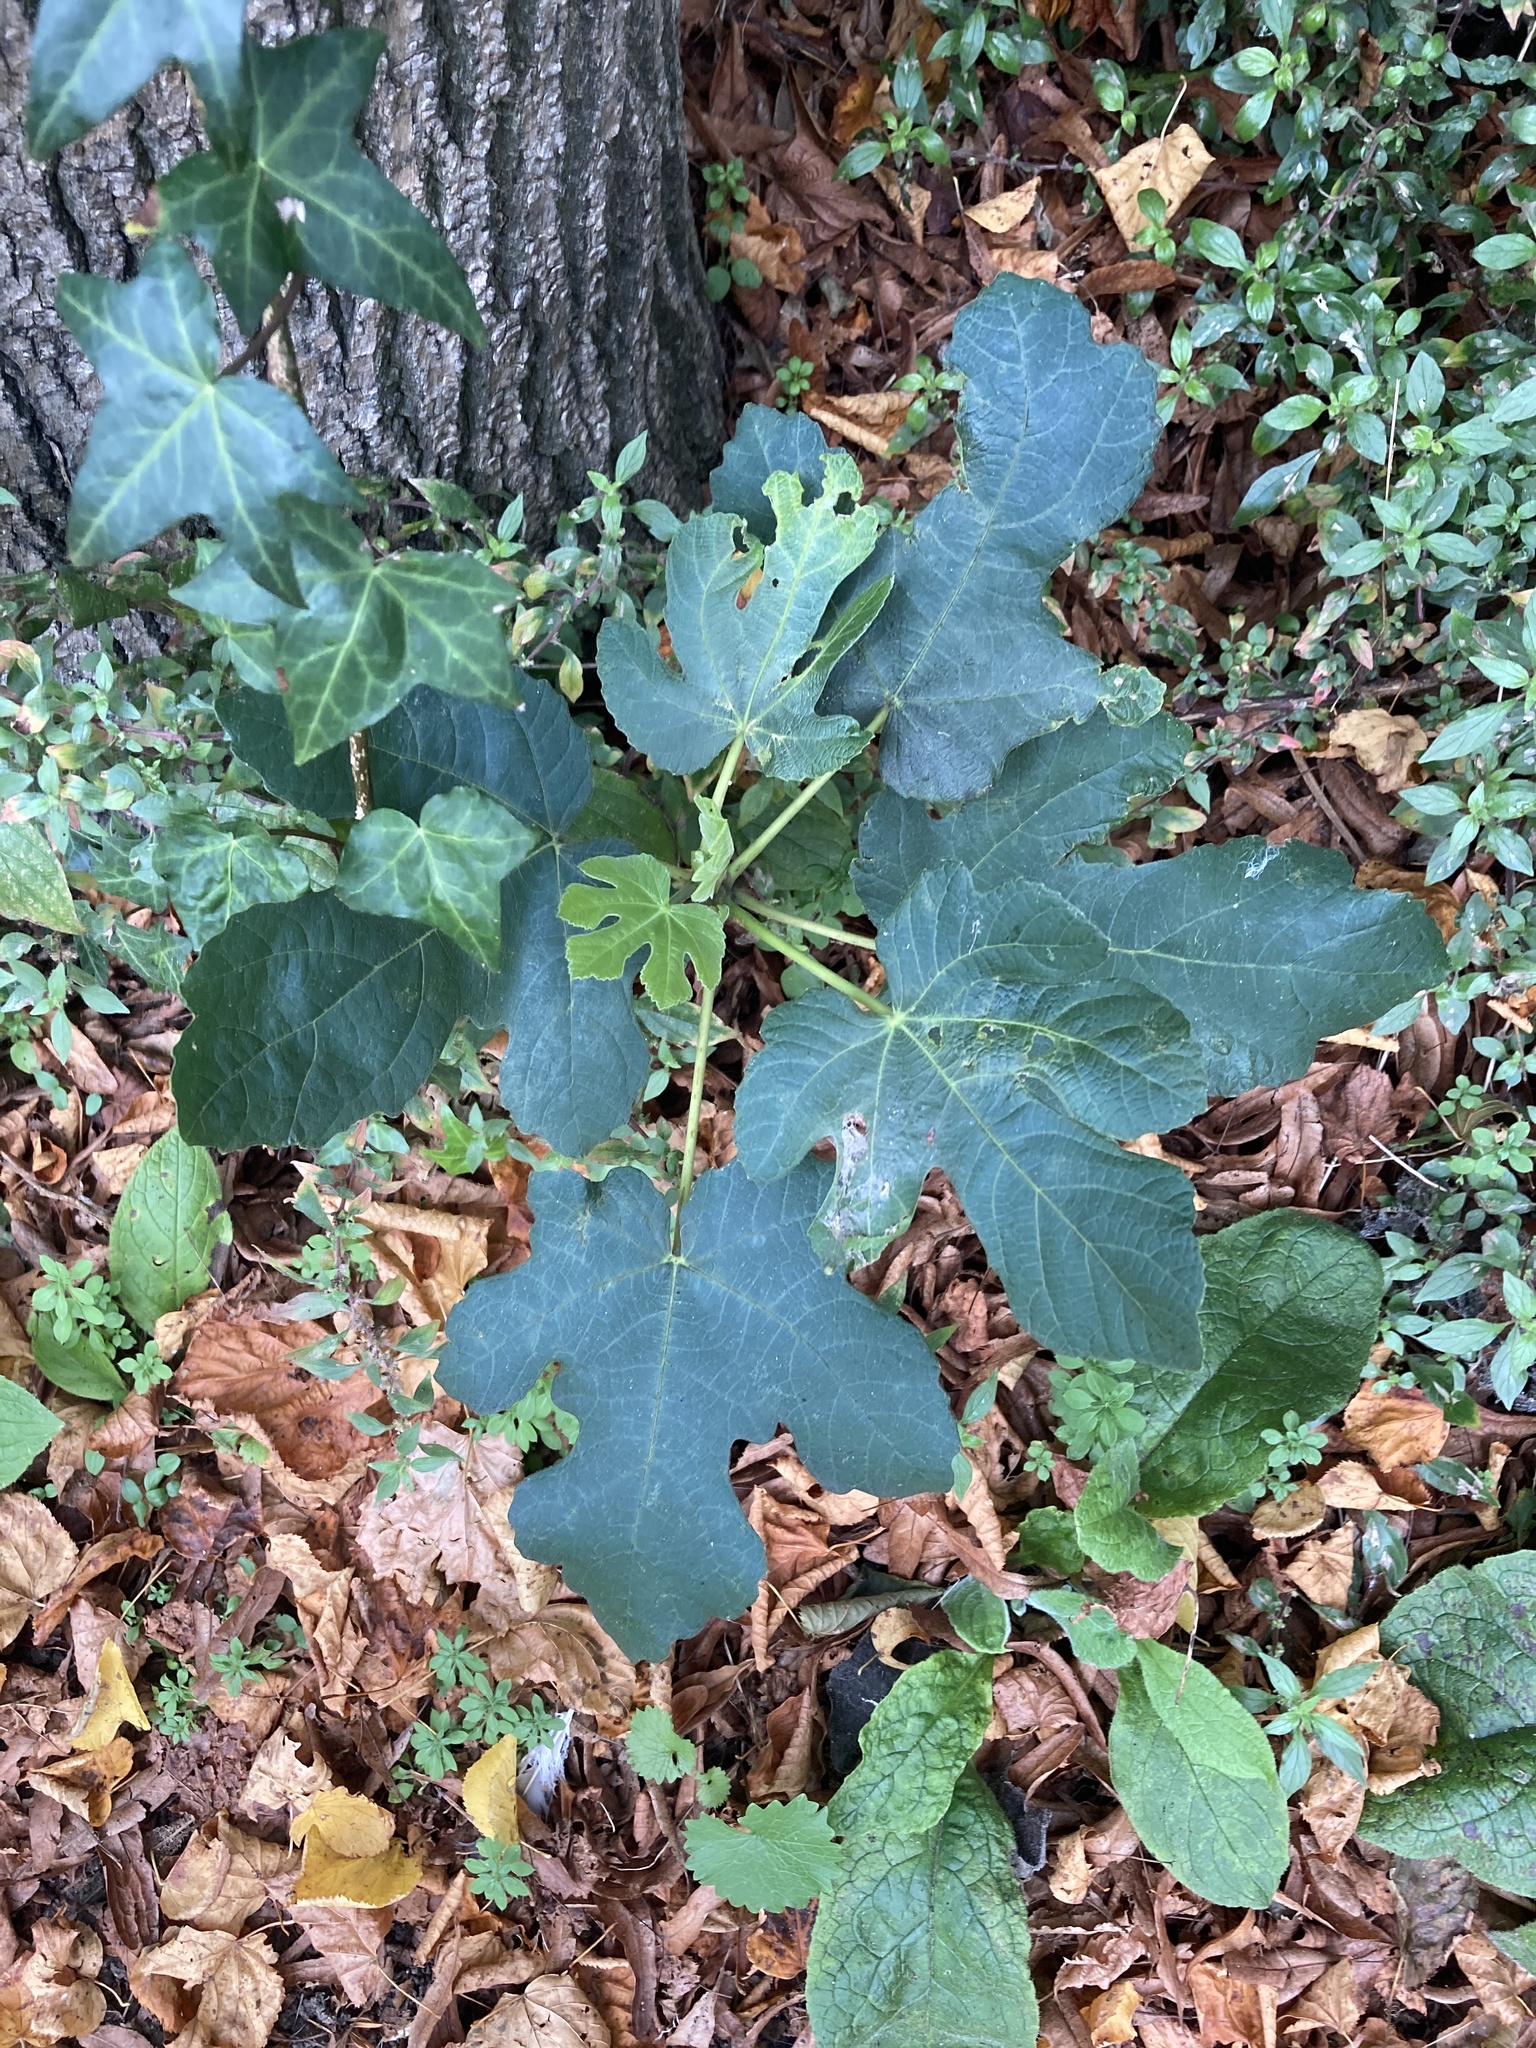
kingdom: Plantae
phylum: Tracheophyta
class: Magnoliopsida
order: Rosales
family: Moraceae
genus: Ficus
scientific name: Ficus carica
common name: Fig
